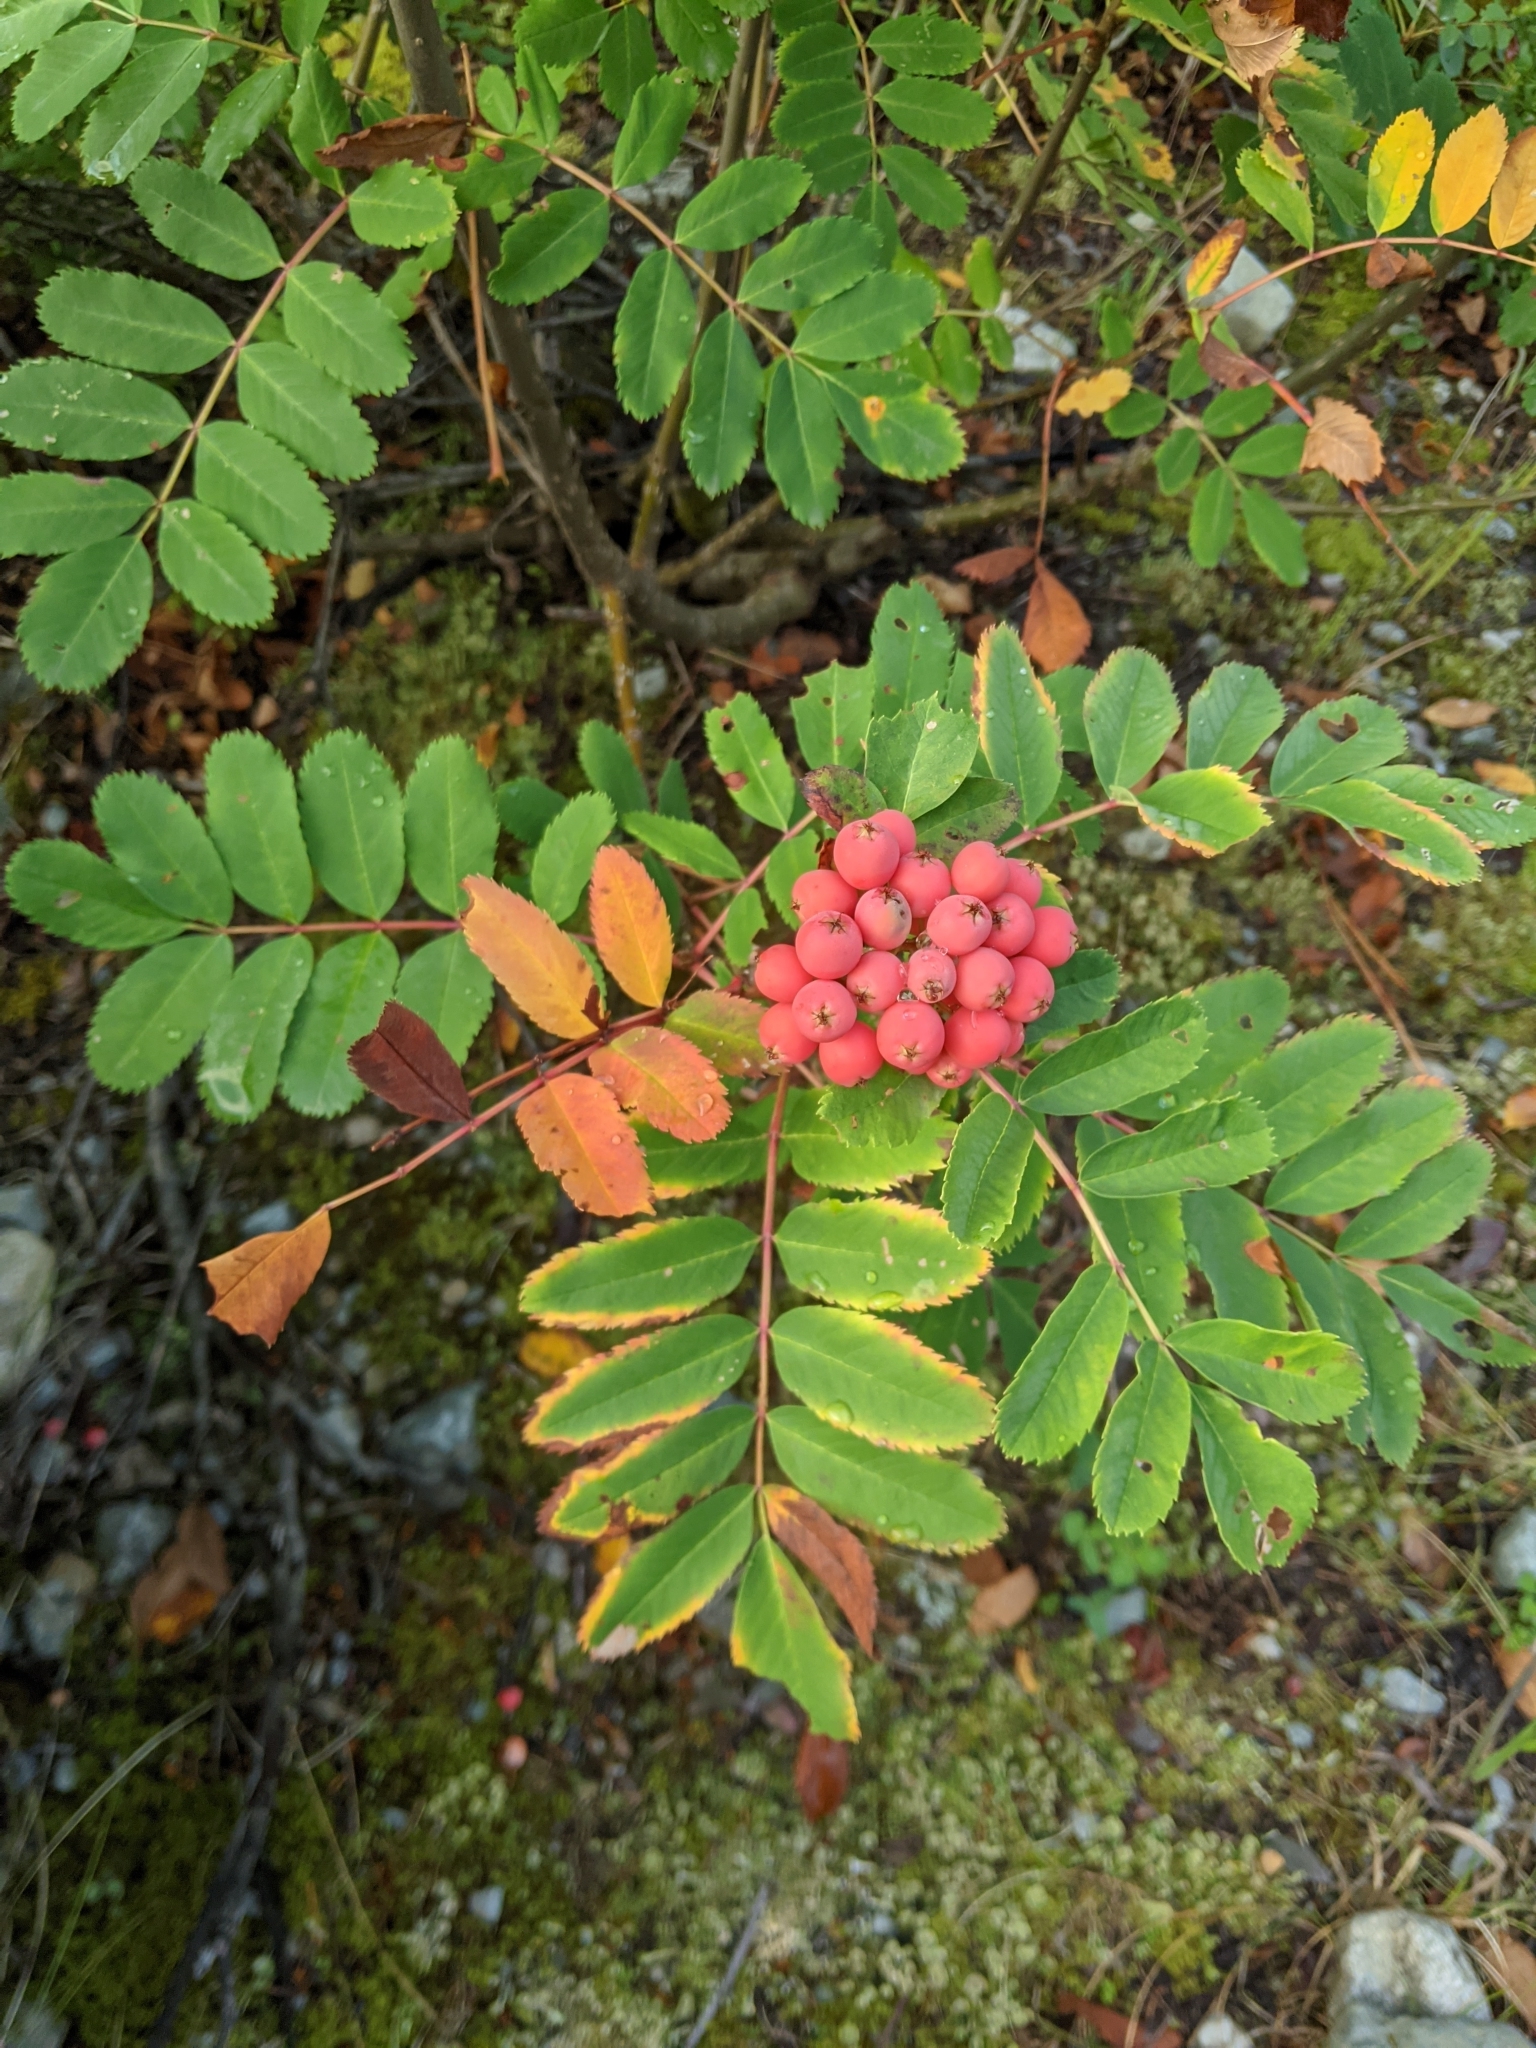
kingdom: Plantae
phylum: Tracheophyta
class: Magnoliopsida
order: Rosales
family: Rosaceae
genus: Sorbus
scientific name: Sorbus sitchensis
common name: Sitka mountain-ash
